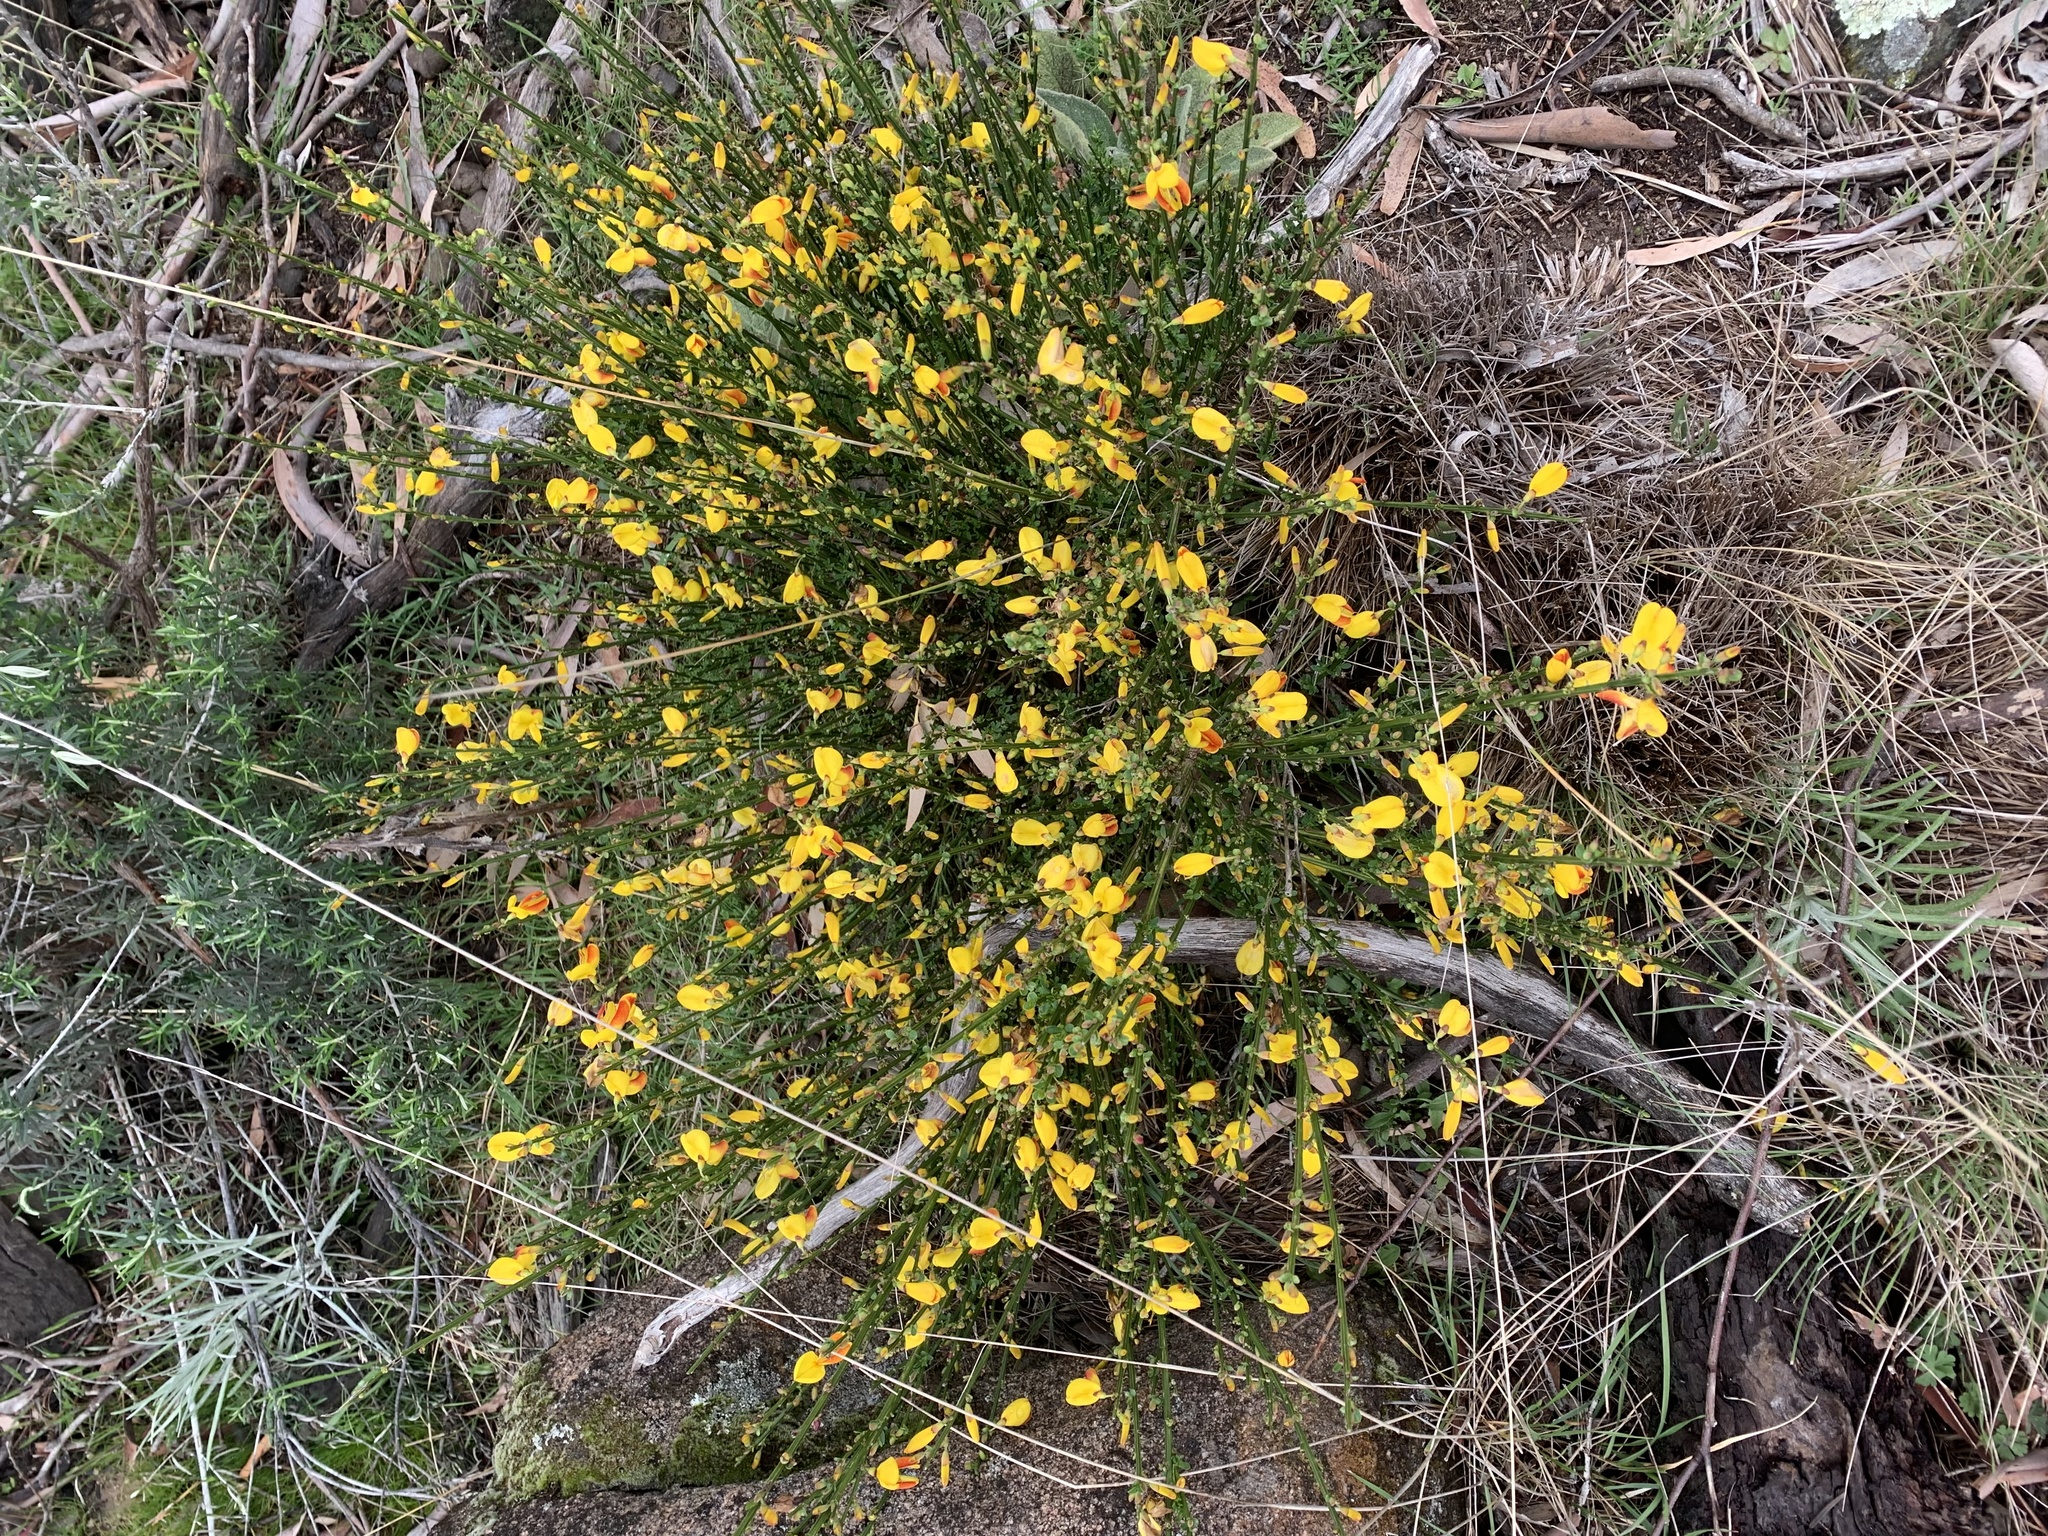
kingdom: Plantae
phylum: Tracheophyta
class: Magnoliopsida
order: Fabales
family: Fabaceae
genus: Cytisus
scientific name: Cytisus scoparius
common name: Scotch broom
